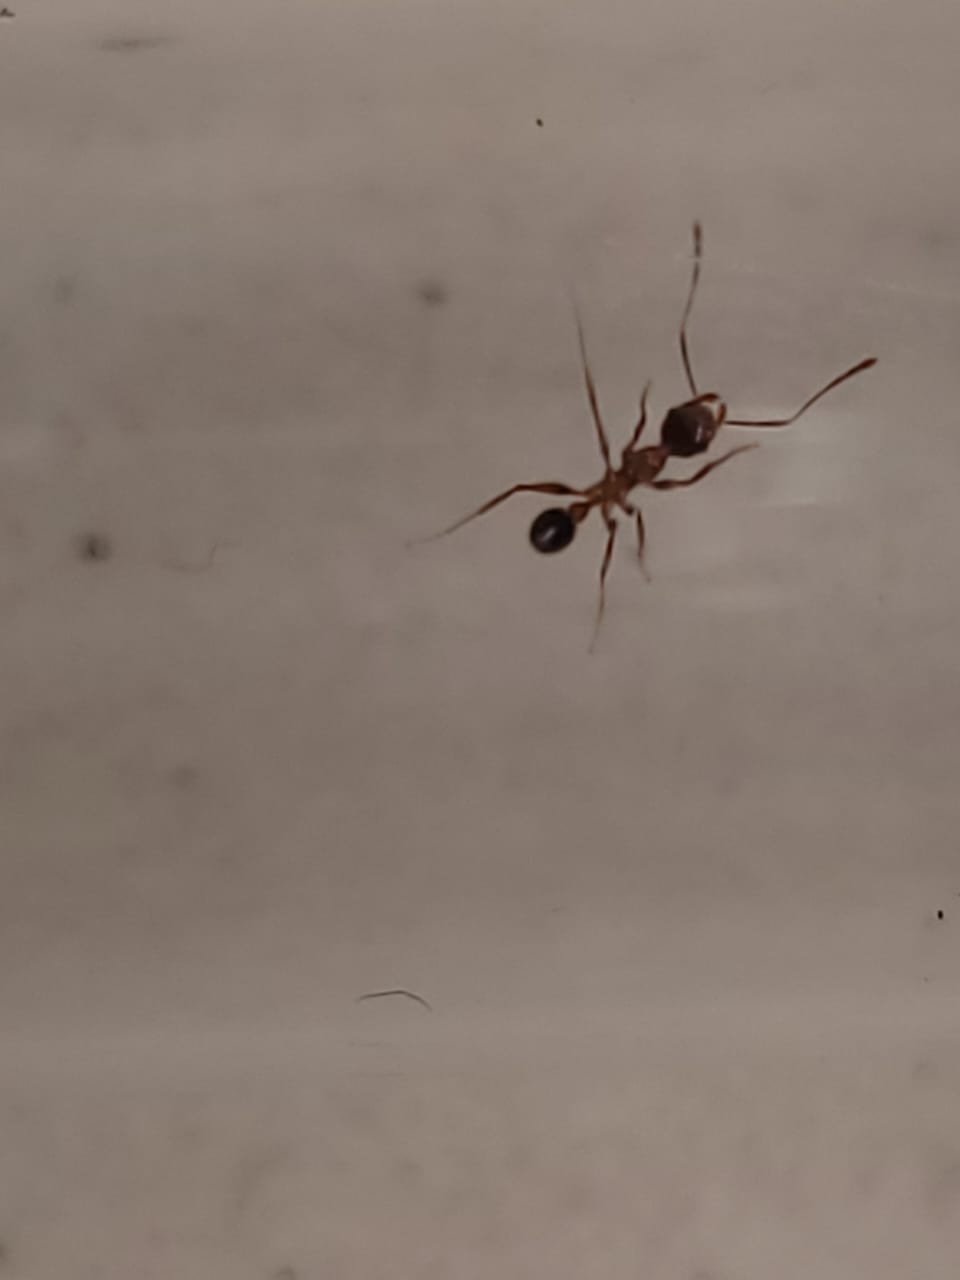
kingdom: Animalia
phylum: Arthropoda
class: Insecta
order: Hymenoptera
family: Formicidae
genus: Pheidole
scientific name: Pheidole noda
